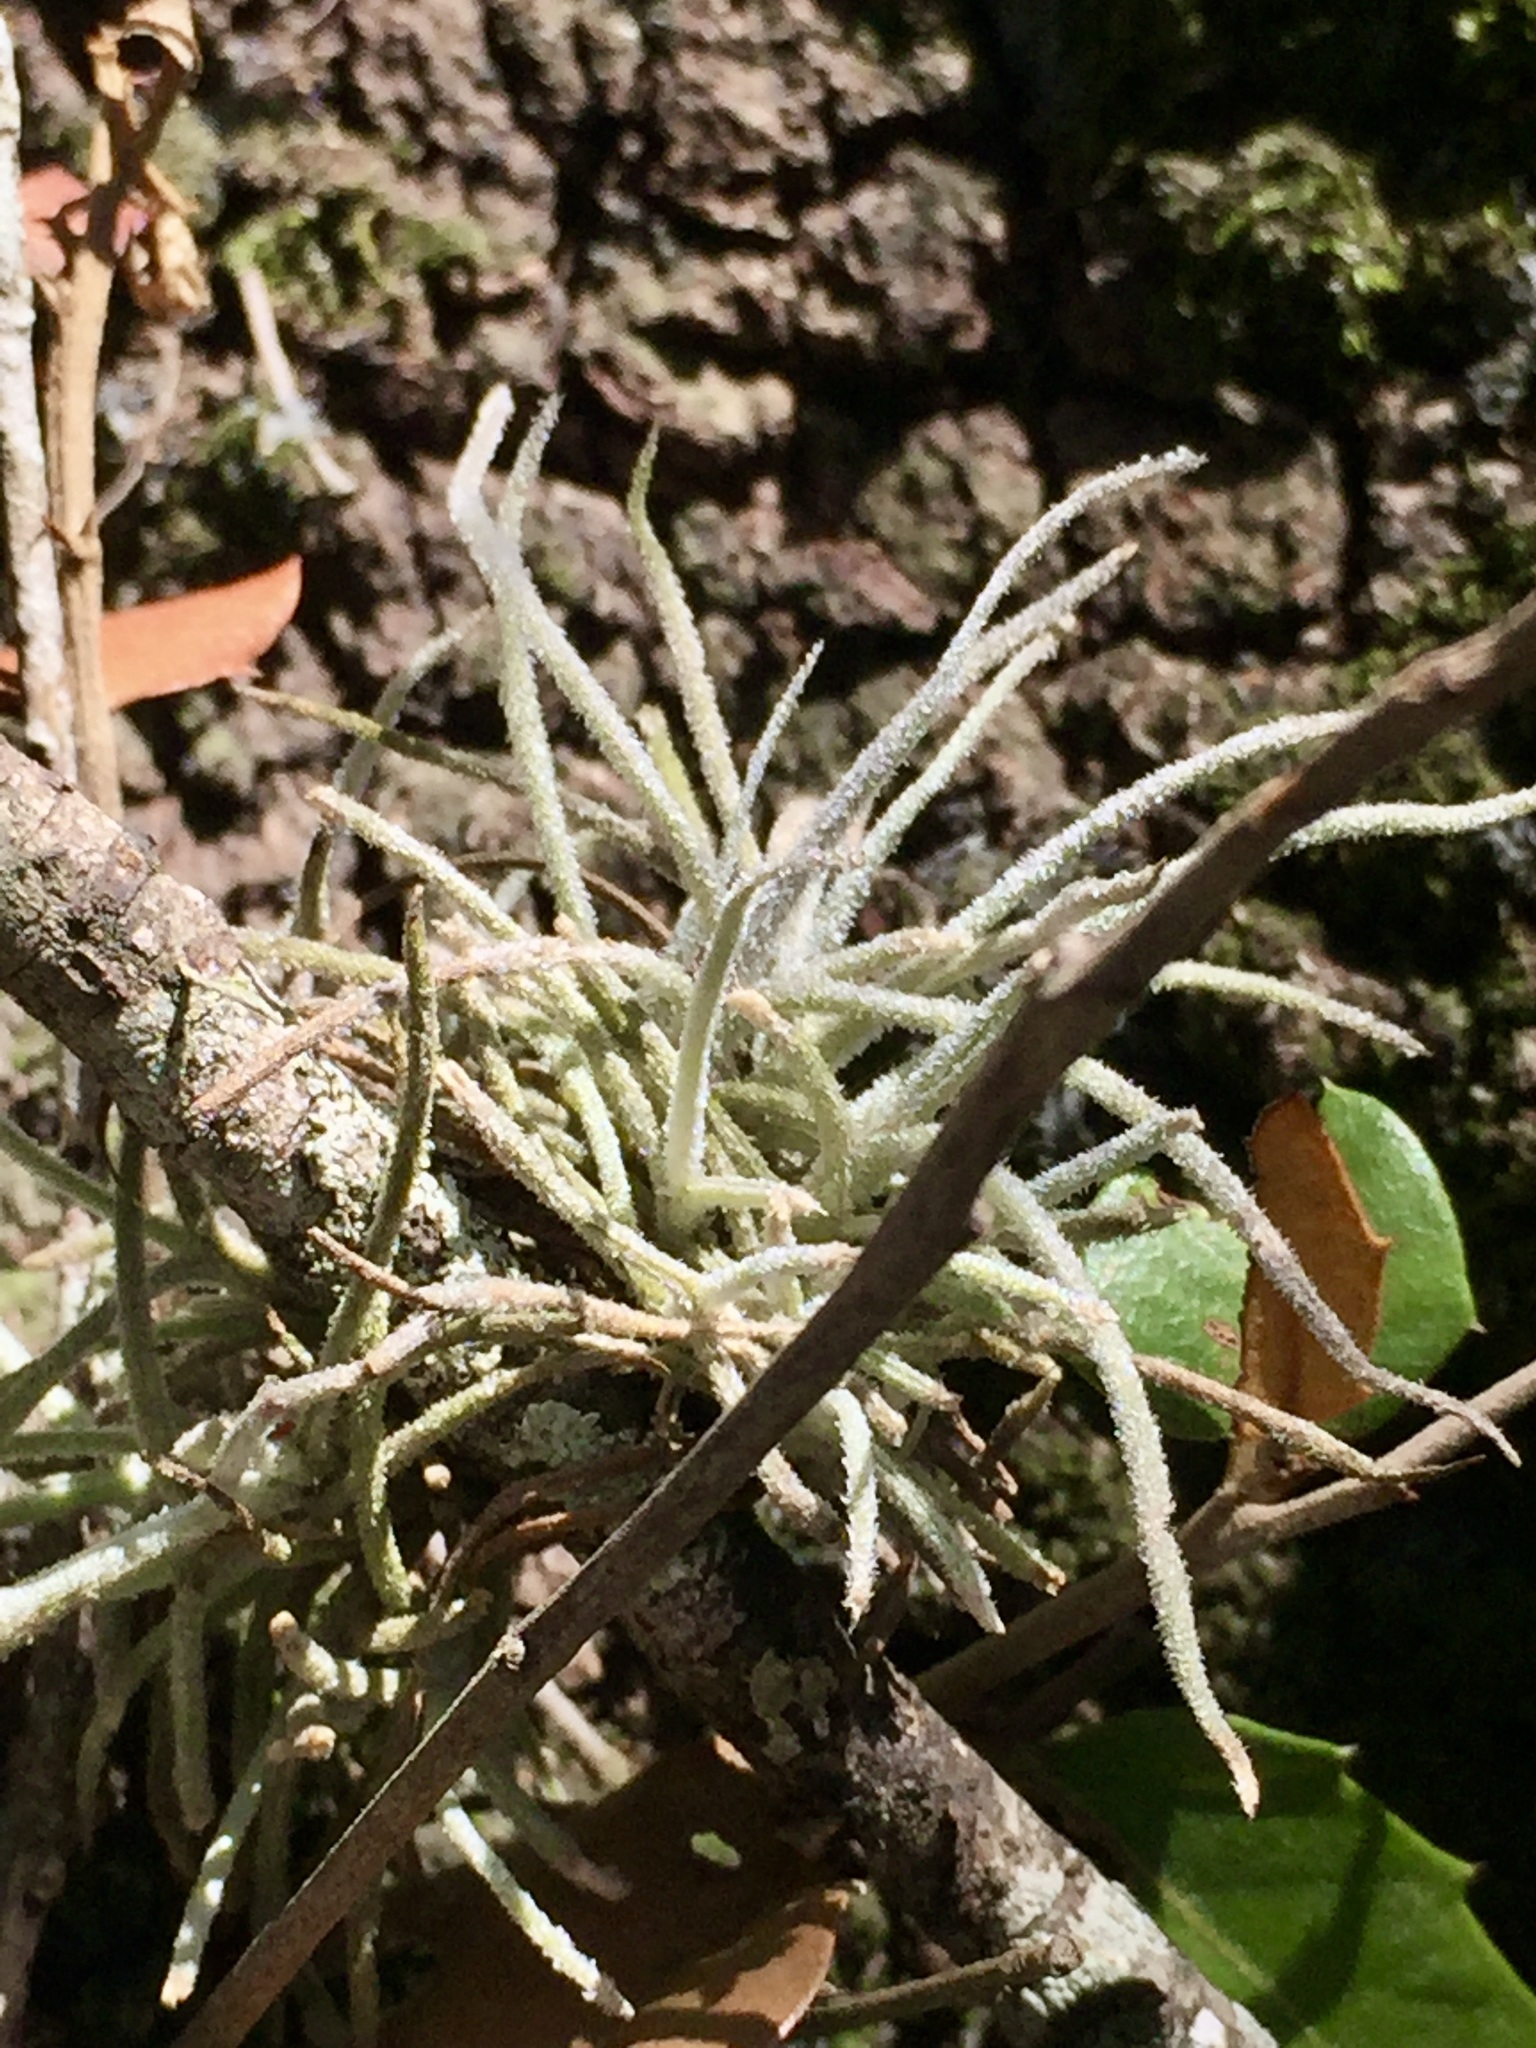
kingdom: Plantae
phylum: Tracheophyta
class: Liliopsida
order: Poales
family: Bromeliaceae
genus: Tillandsia
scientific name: Tillandsia recurvata
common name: Small ballmoss
